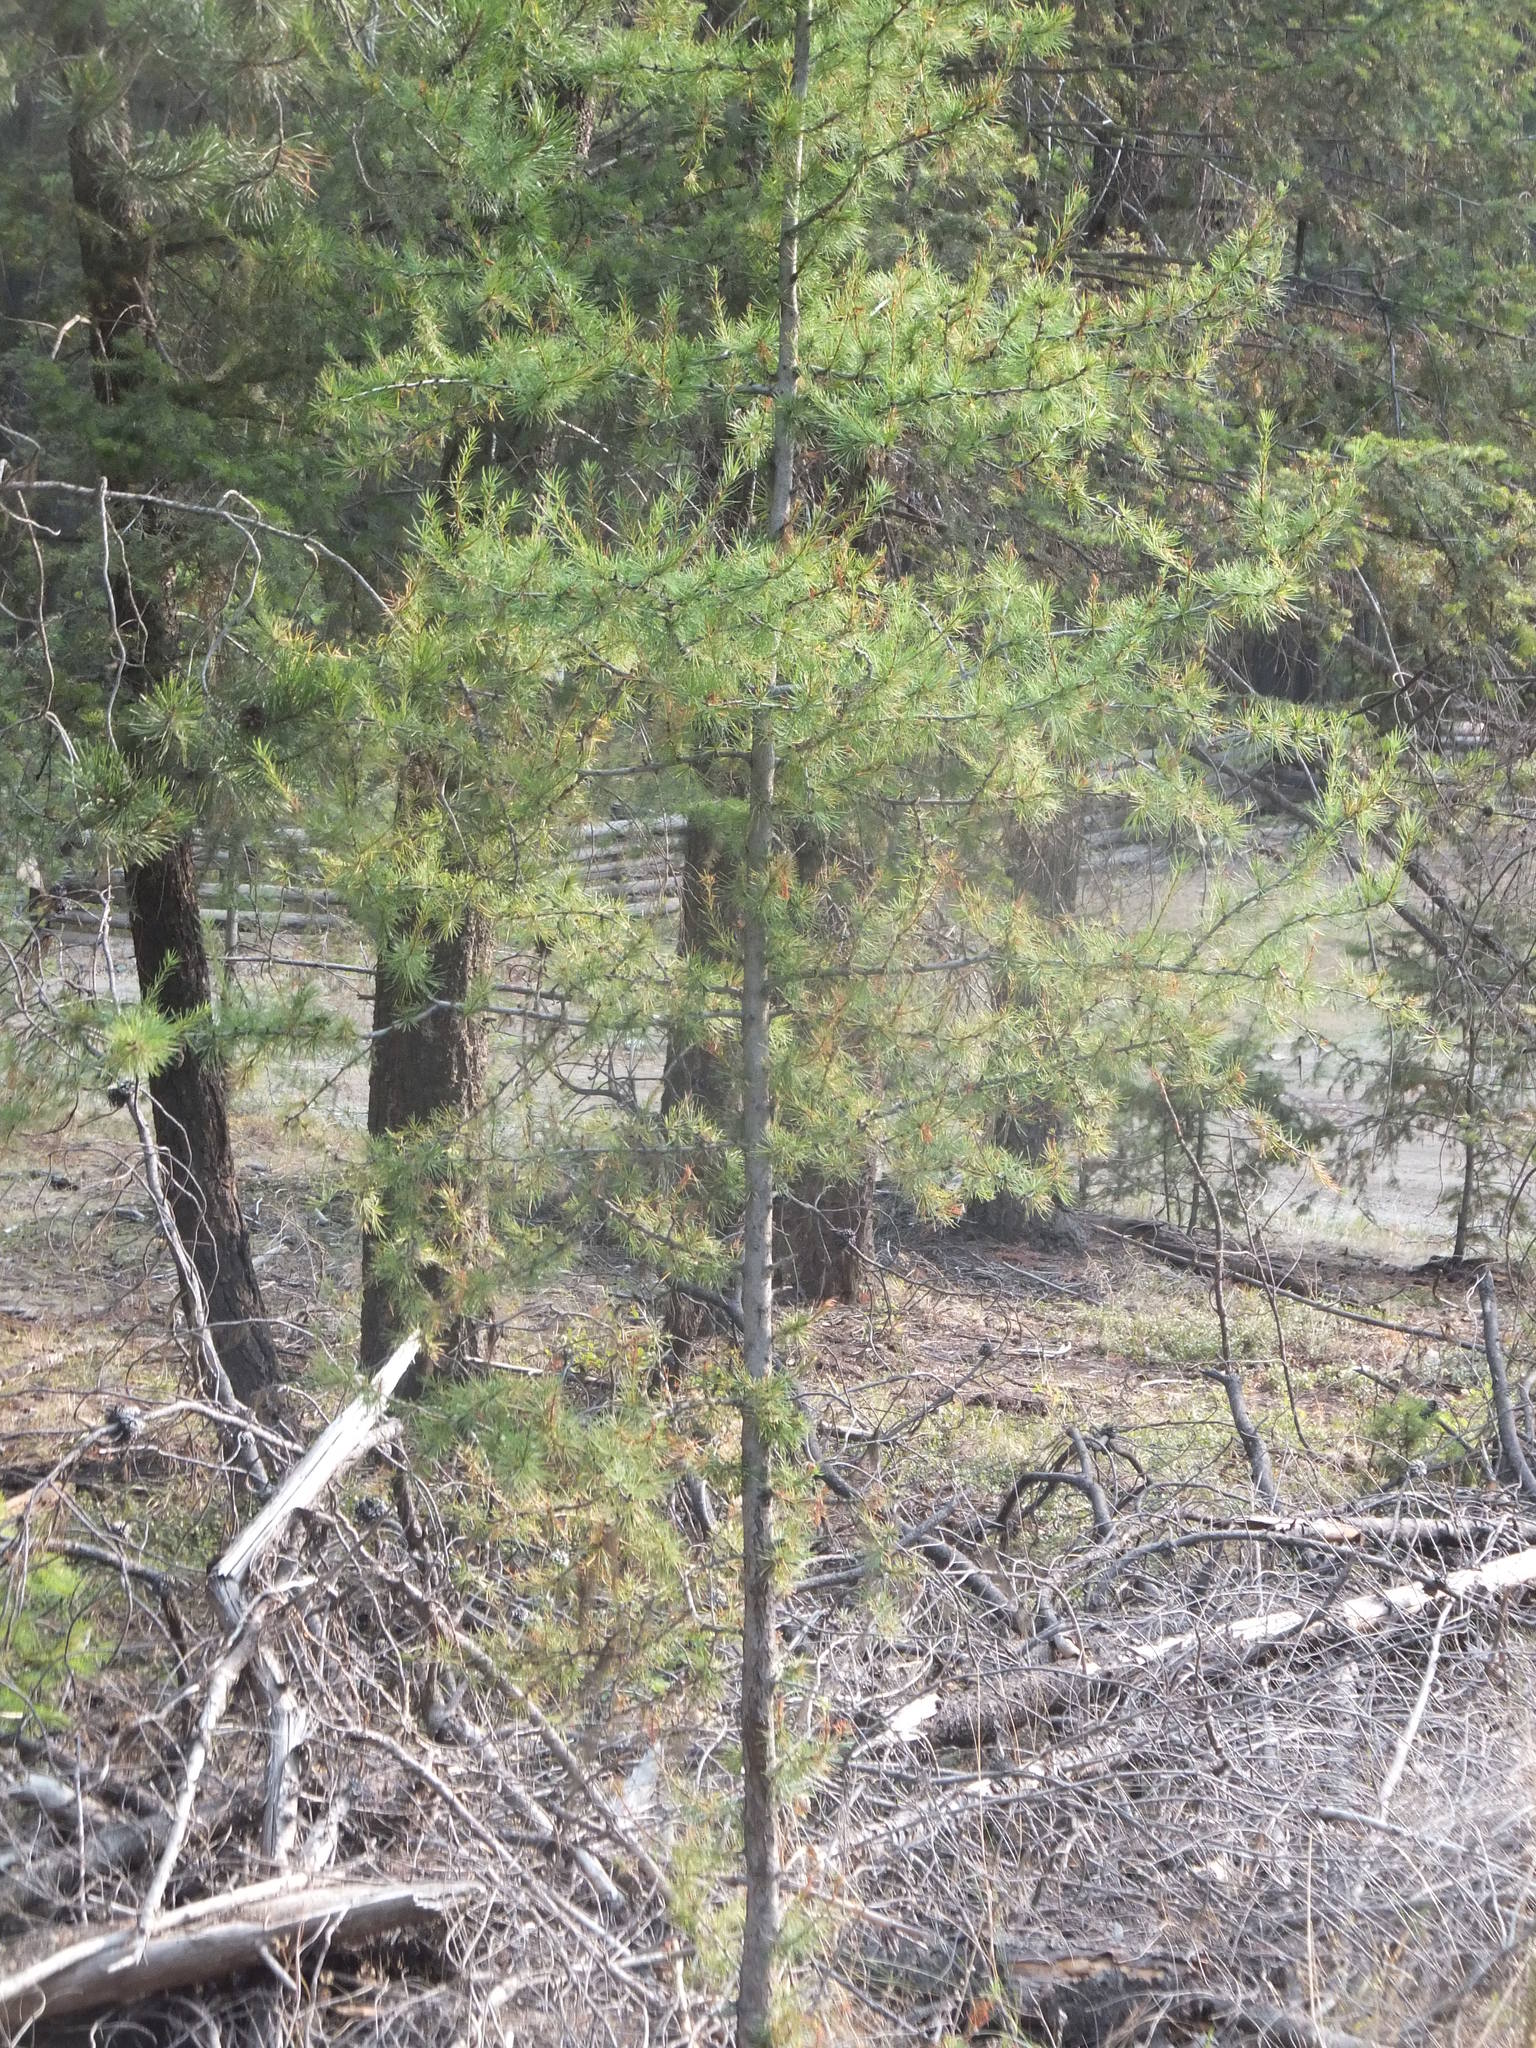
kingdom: Plantae
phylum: Tracheophyta
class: Pinopsida
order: Pinales
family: Pinaceae
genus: Larix
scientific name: Larix occidentalis
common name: Western larch
